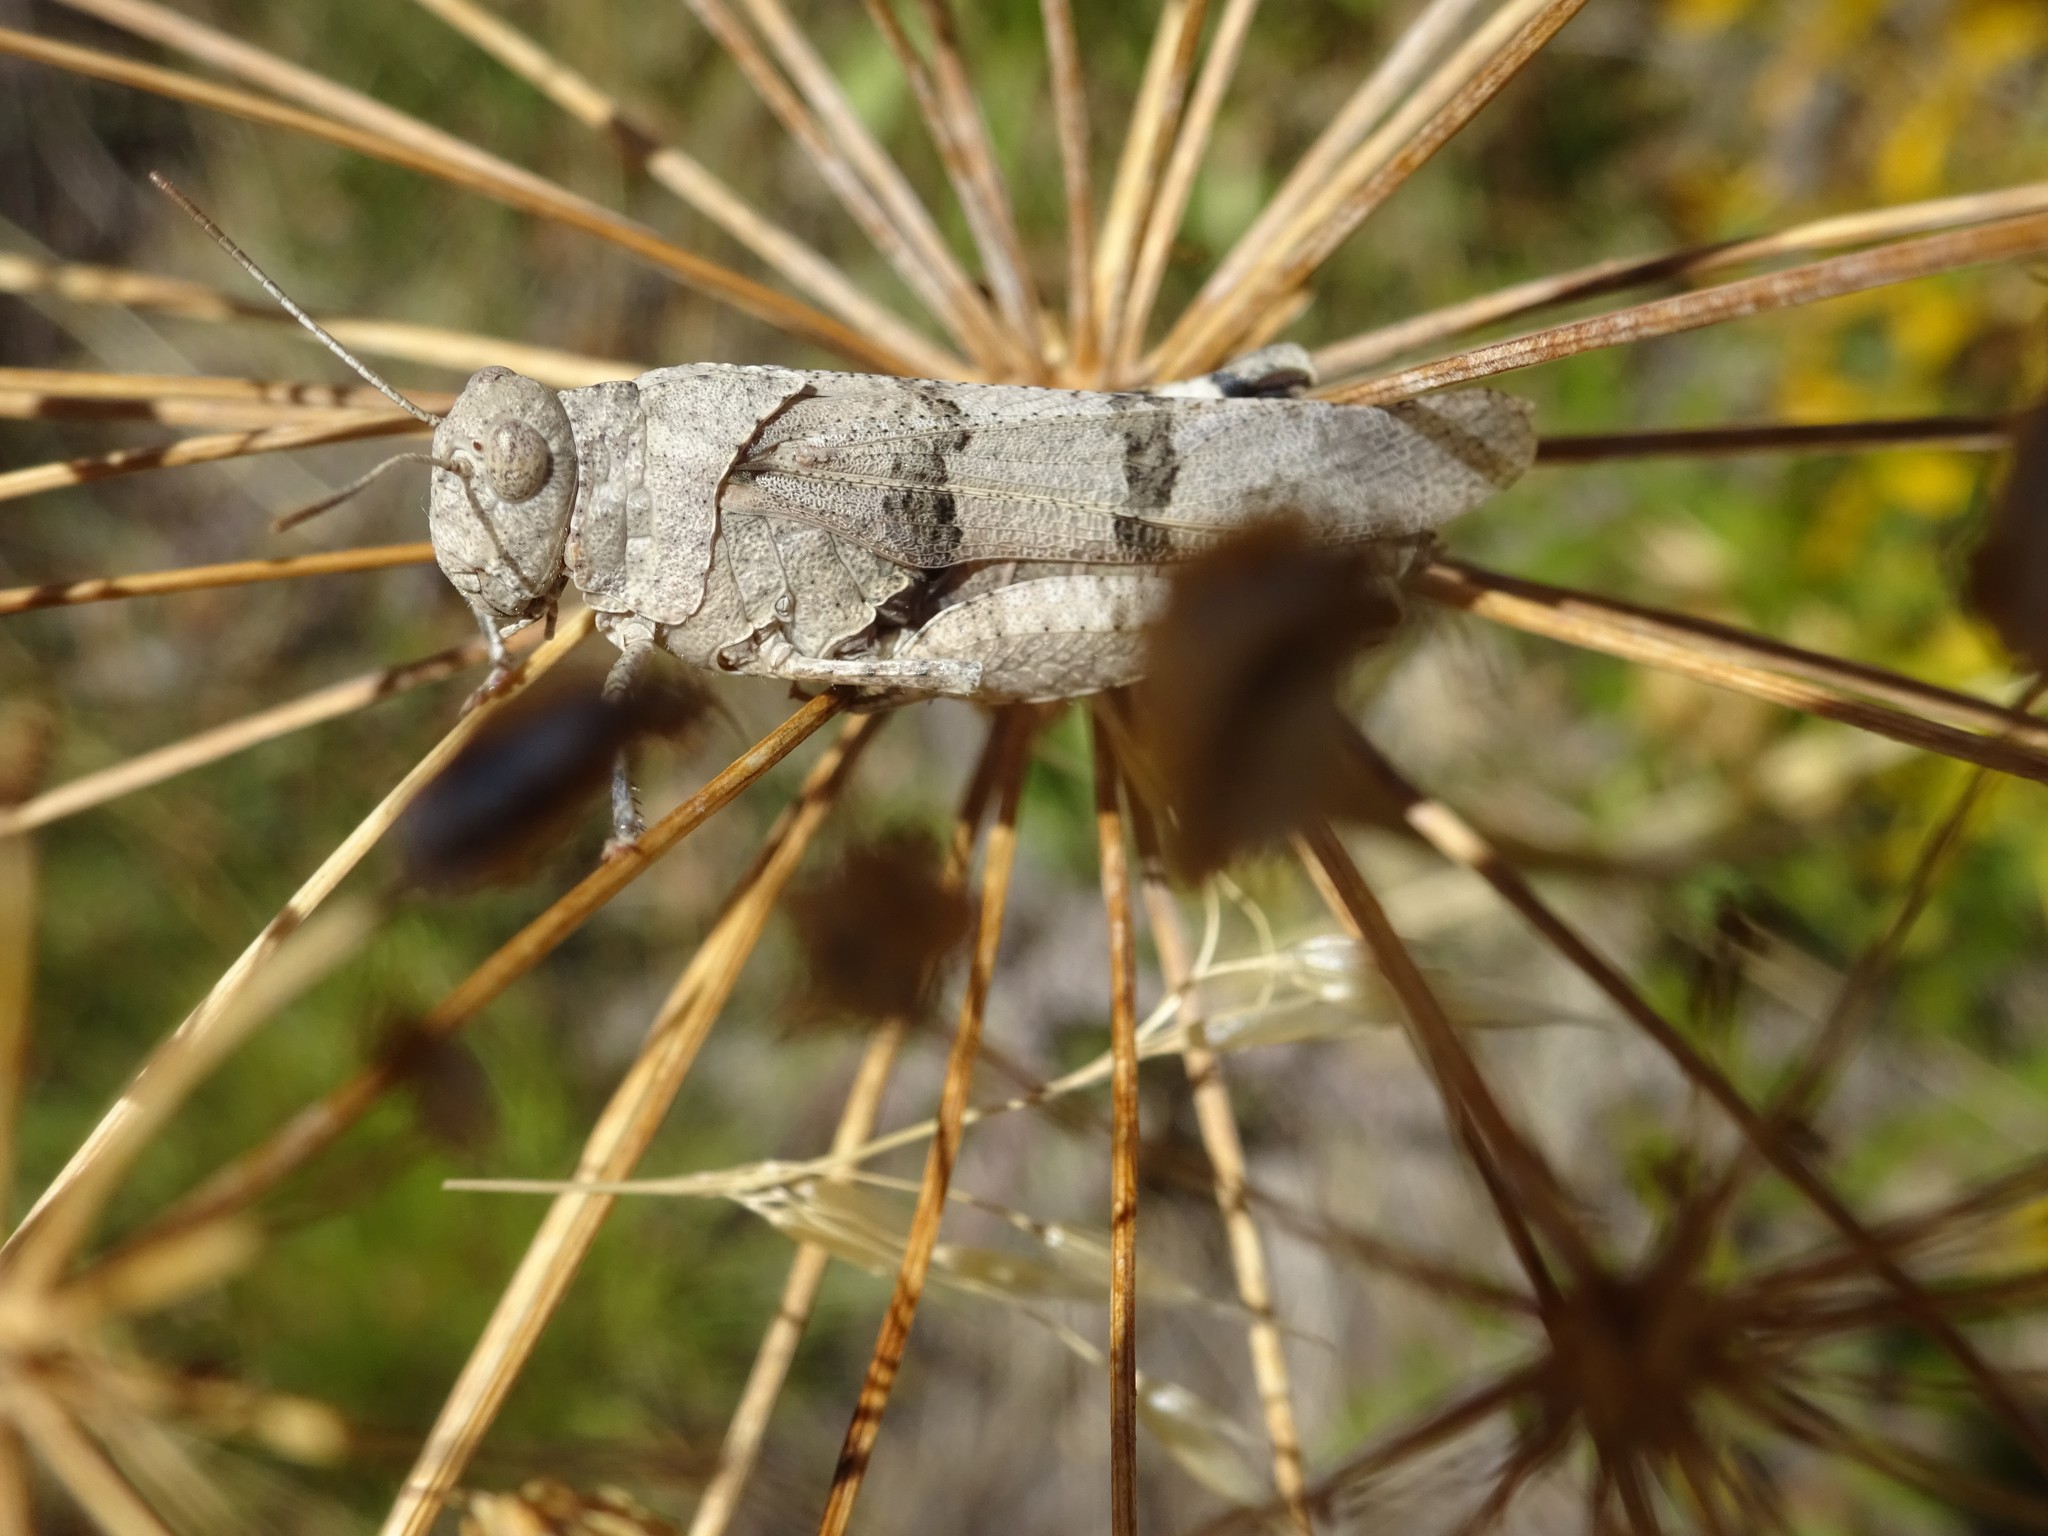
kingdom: Animalia
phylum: Arthropoda
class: Insecta
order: Orthoptera
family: Acrididae
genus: Oedipoda
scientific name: Oedipoda caerulescens
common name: Blue-winged grasshopper
